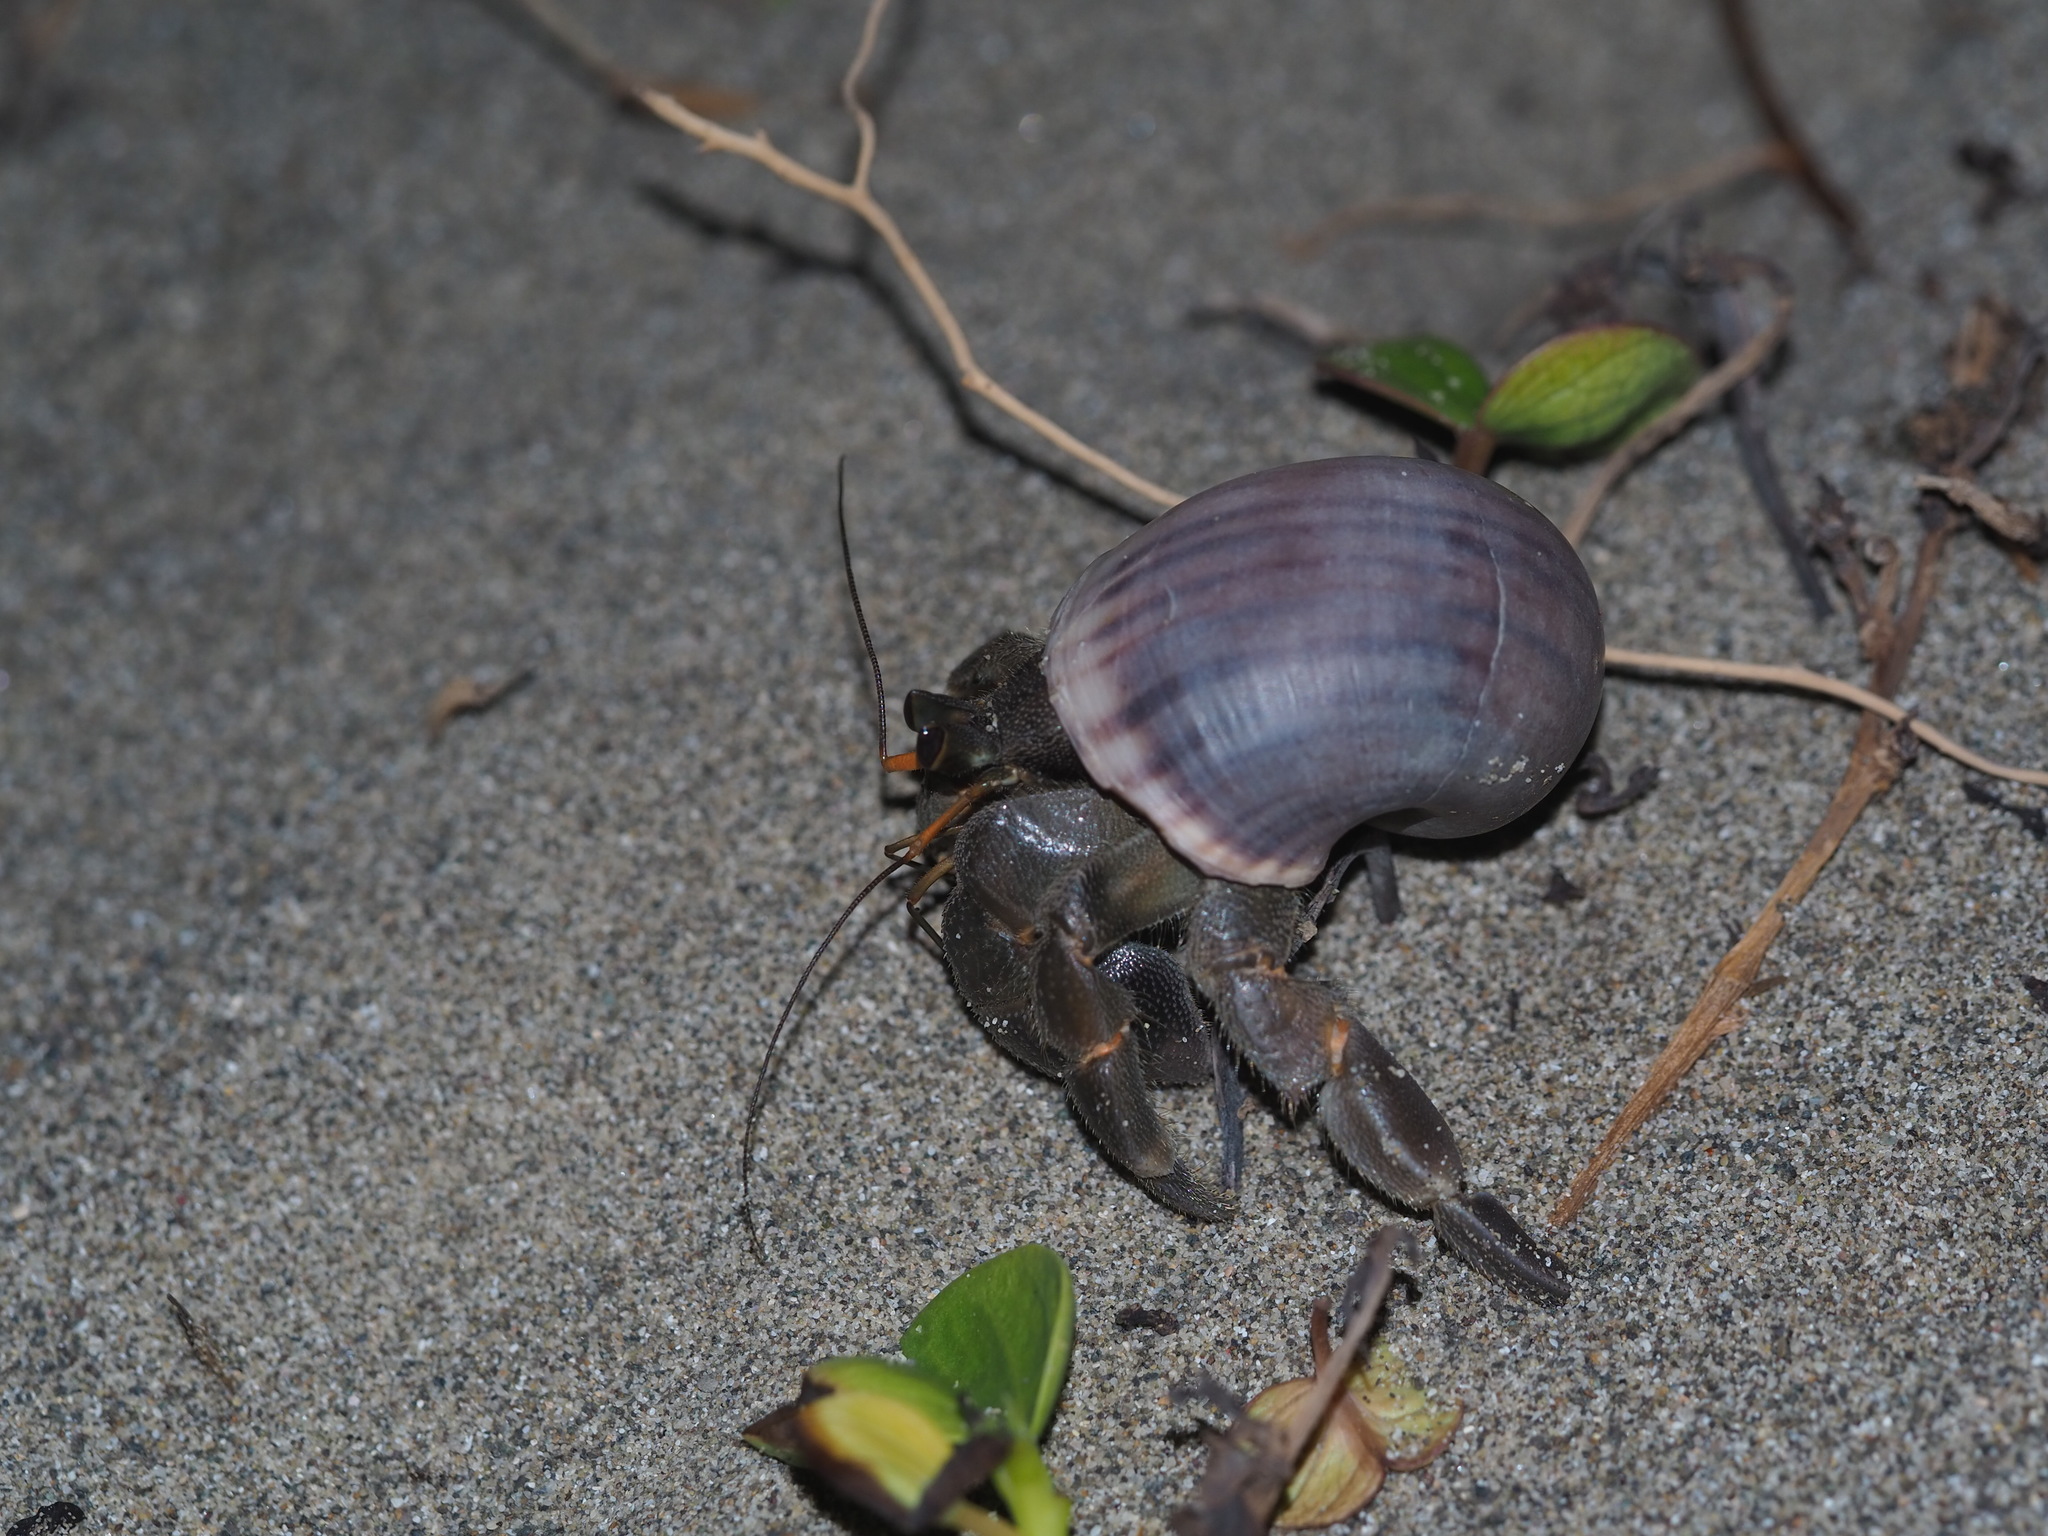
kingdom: Animalia
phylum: Arthropoda
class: Malacostraca
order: Decapoda
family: Coenobitidae
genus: Coenobita
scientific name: Coenobita rugosus
